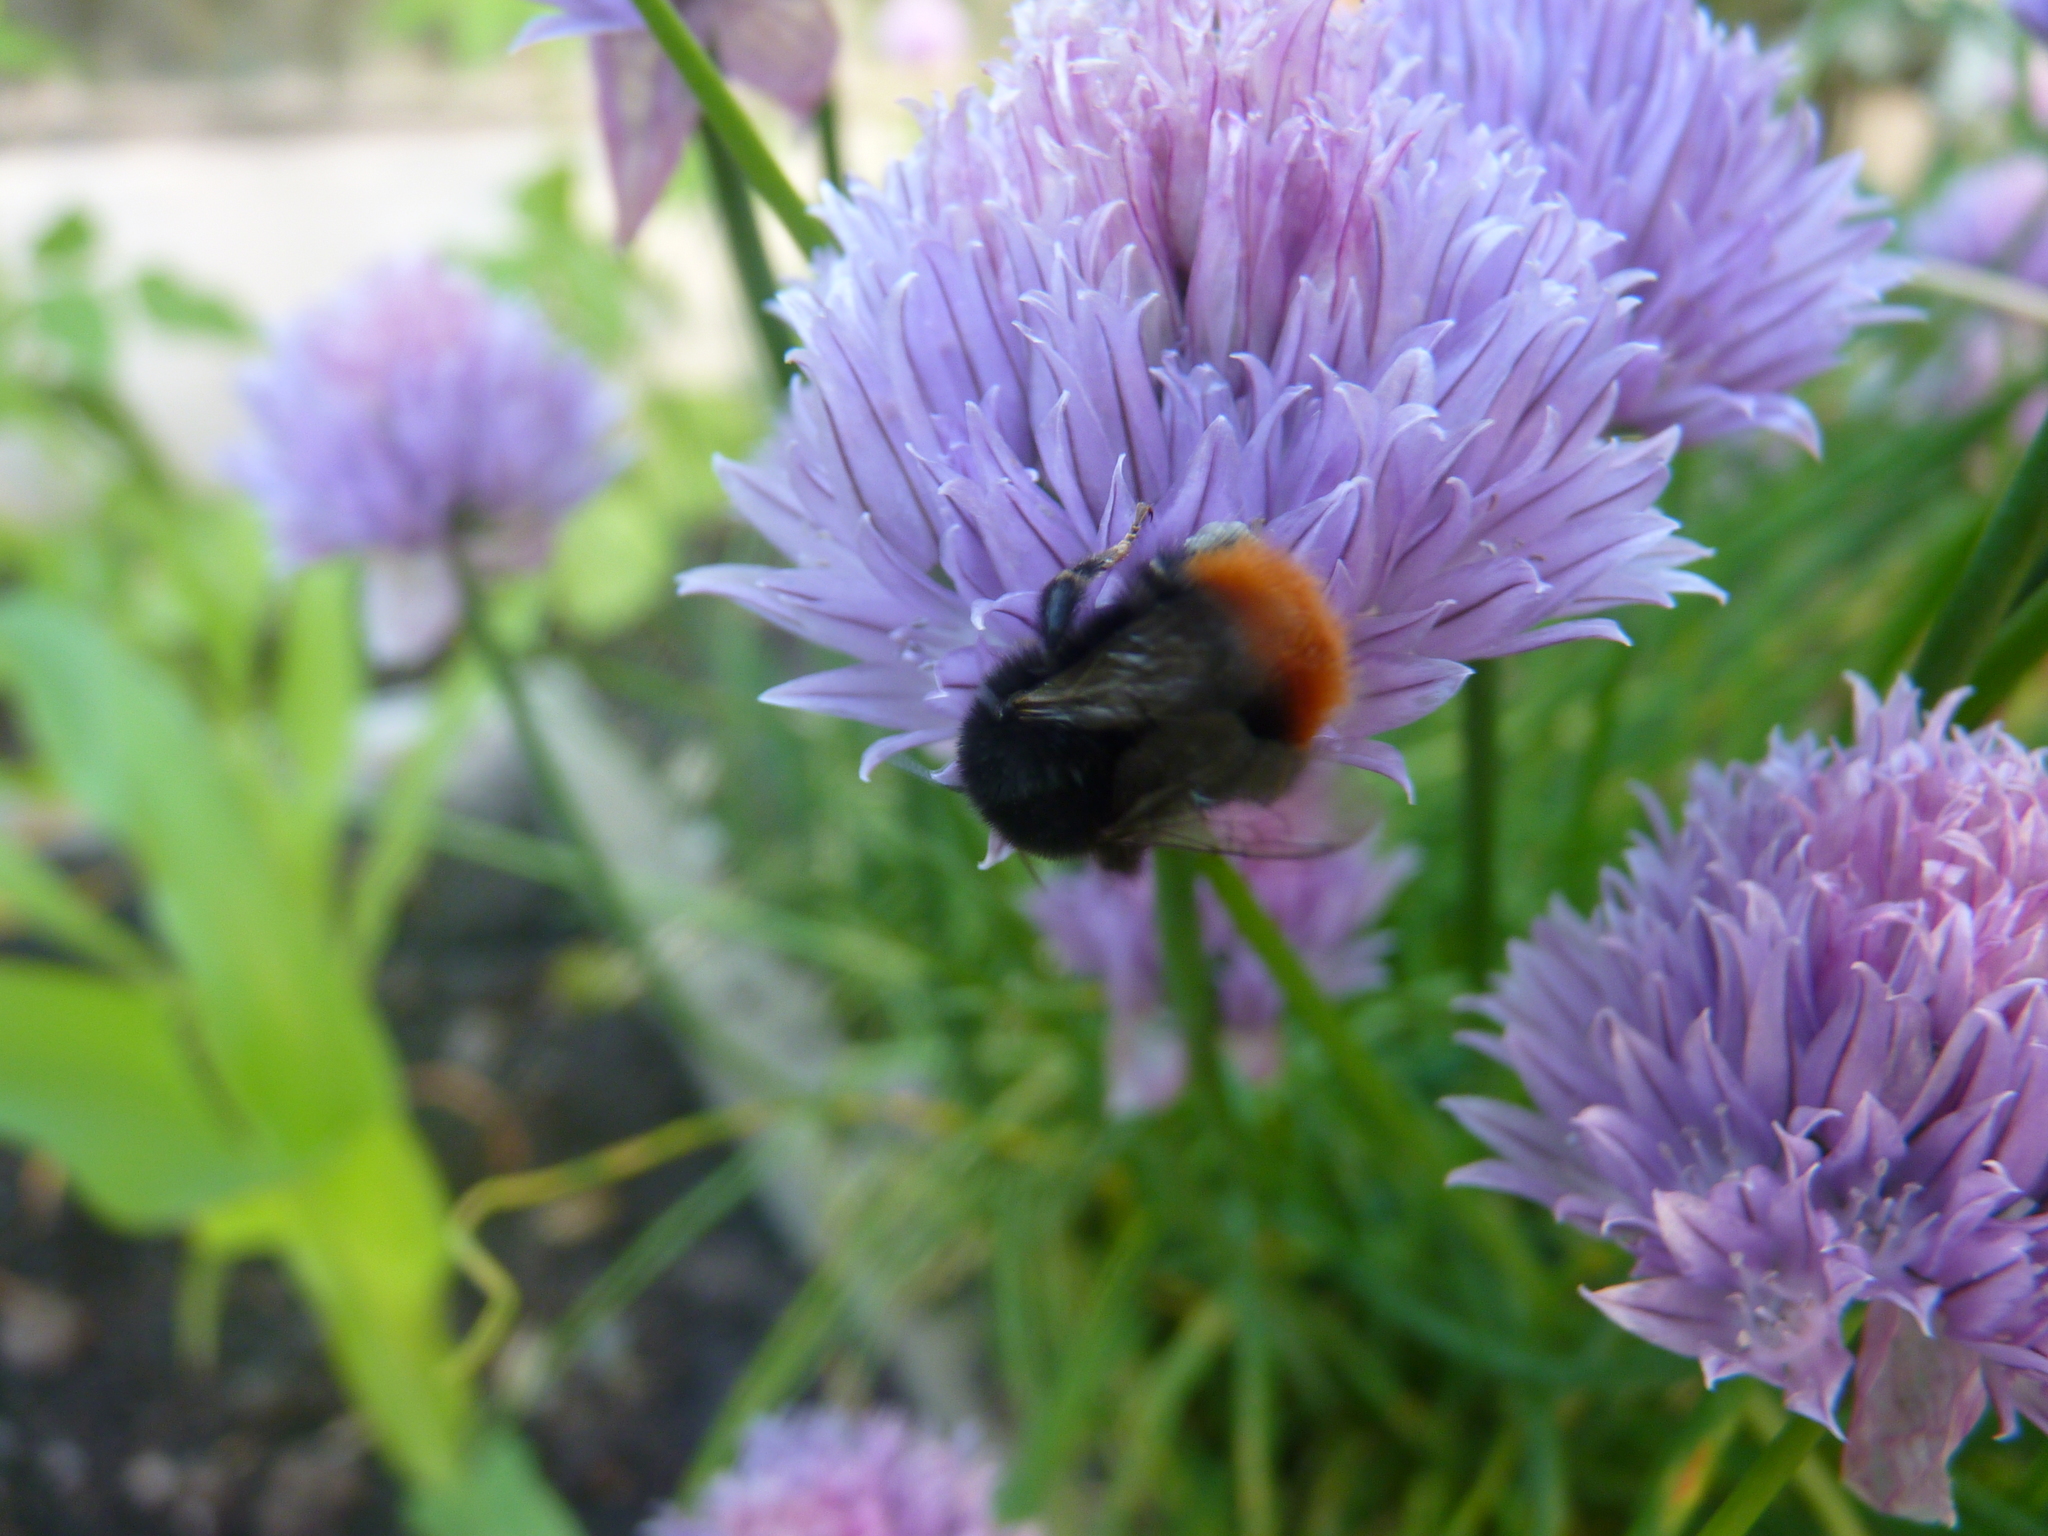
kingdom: Animalia
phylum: Arthropoda
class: Insecta
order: Hymenoptera
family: Apidae
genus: Bombus
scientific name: Bombus lapidarius
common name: Large red-tailed humble-bee
